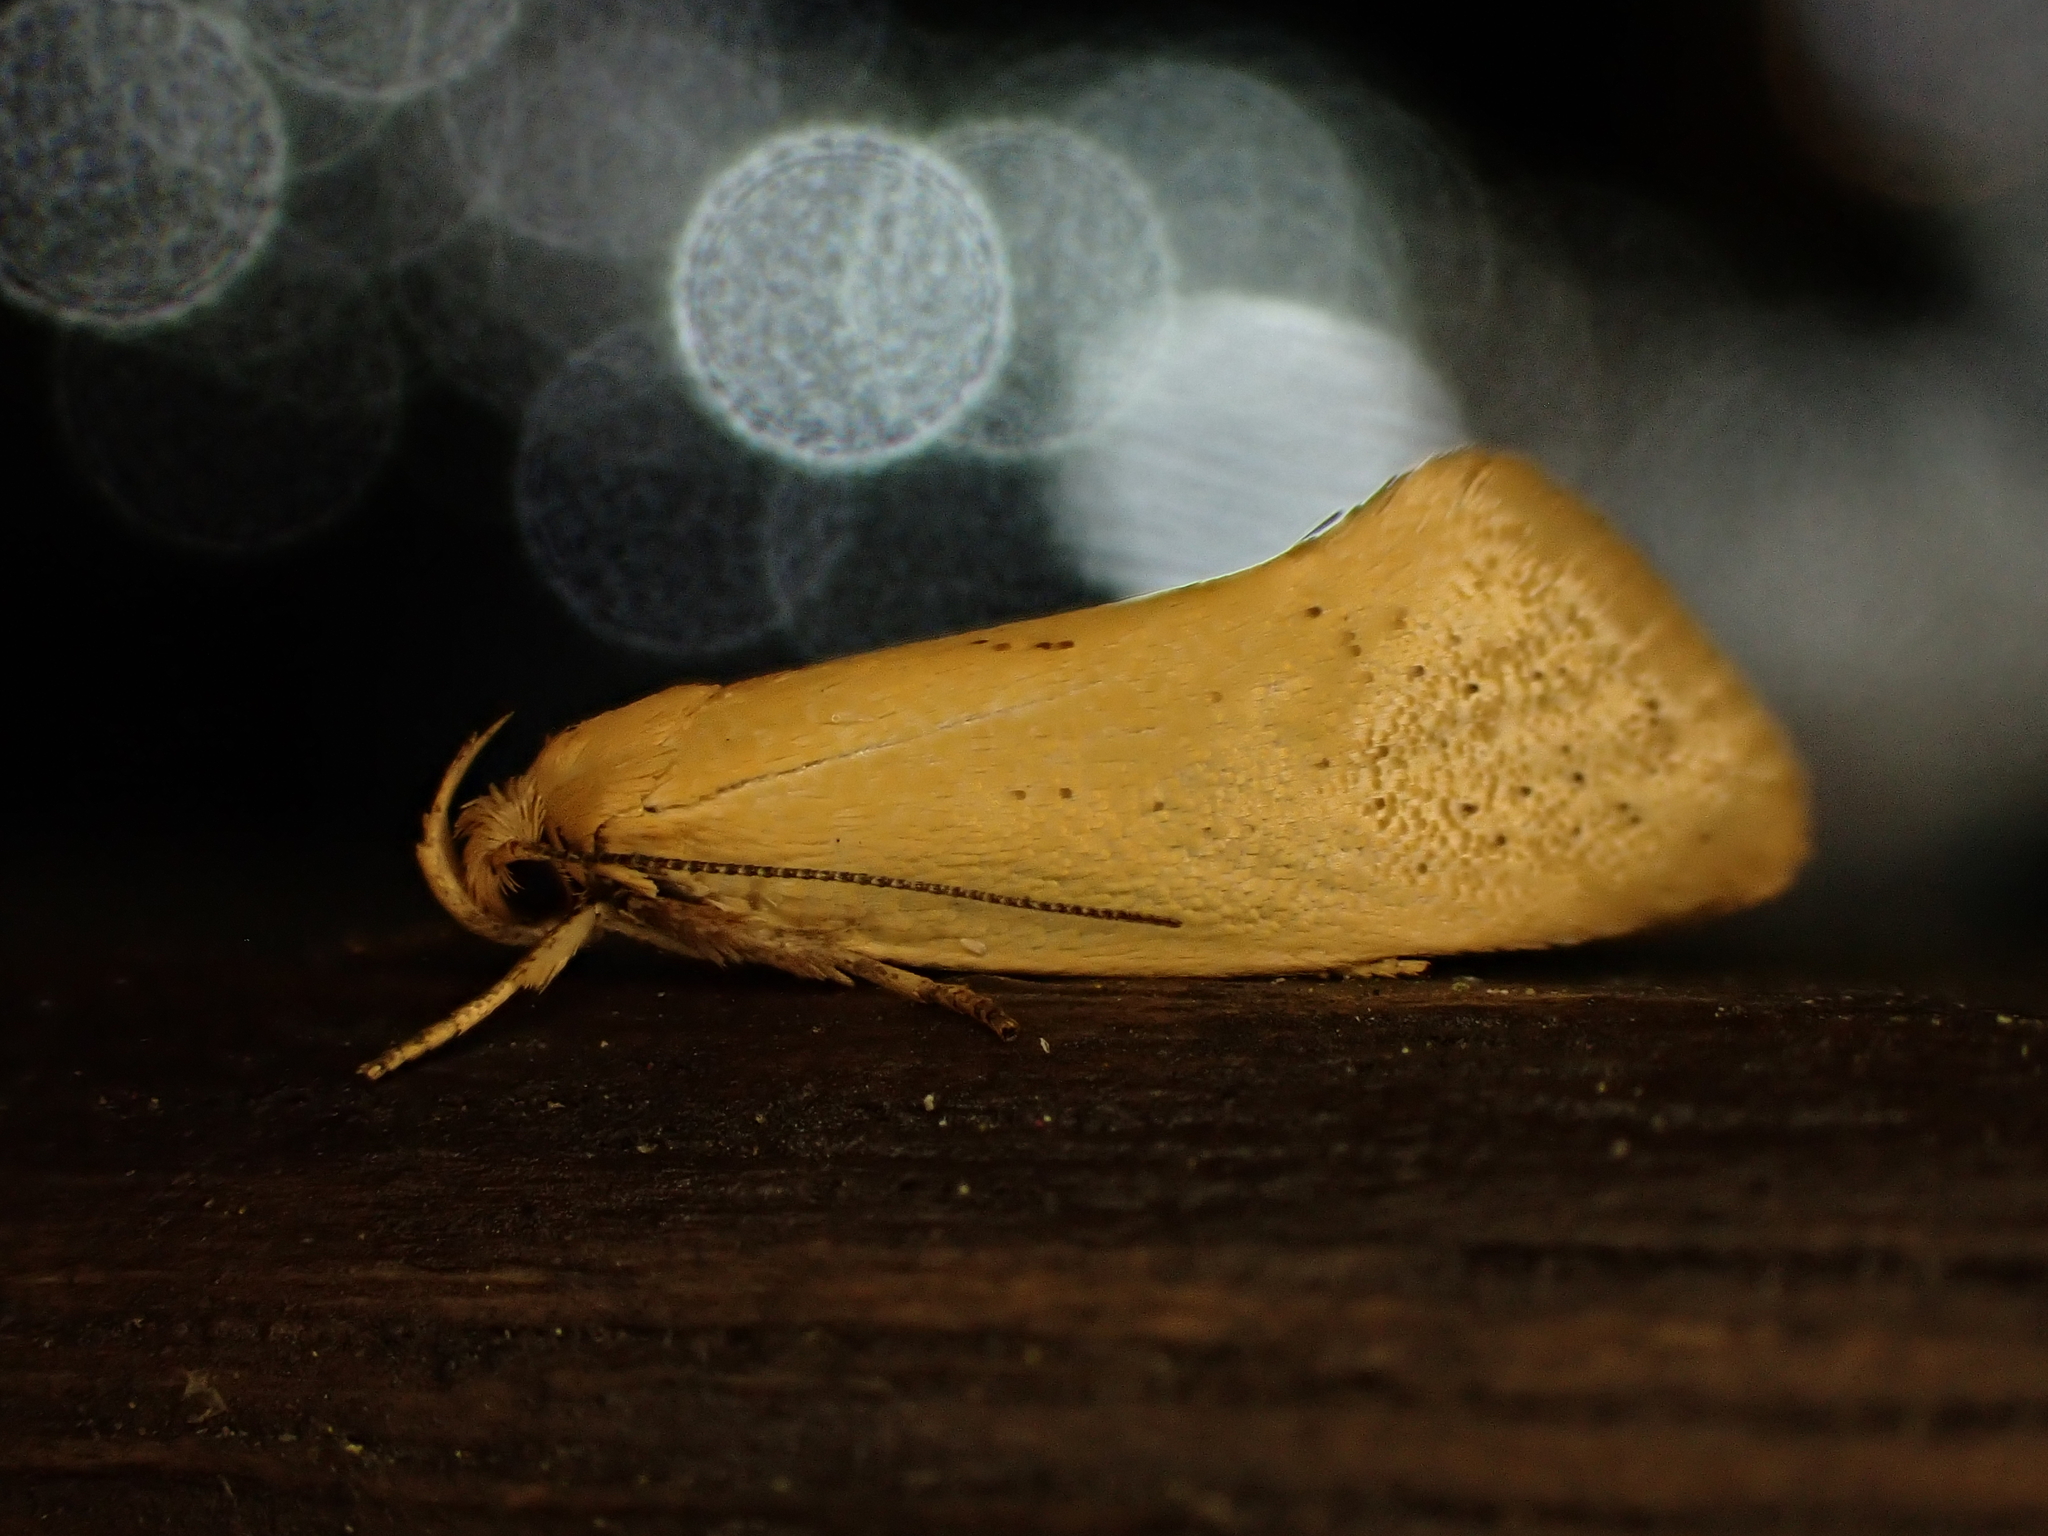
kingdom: Animalia
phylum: Arthropoda
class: Insecta
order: Lepidoptera
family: Oecophoridae
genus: Tingena
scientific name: Tingena armigerella
